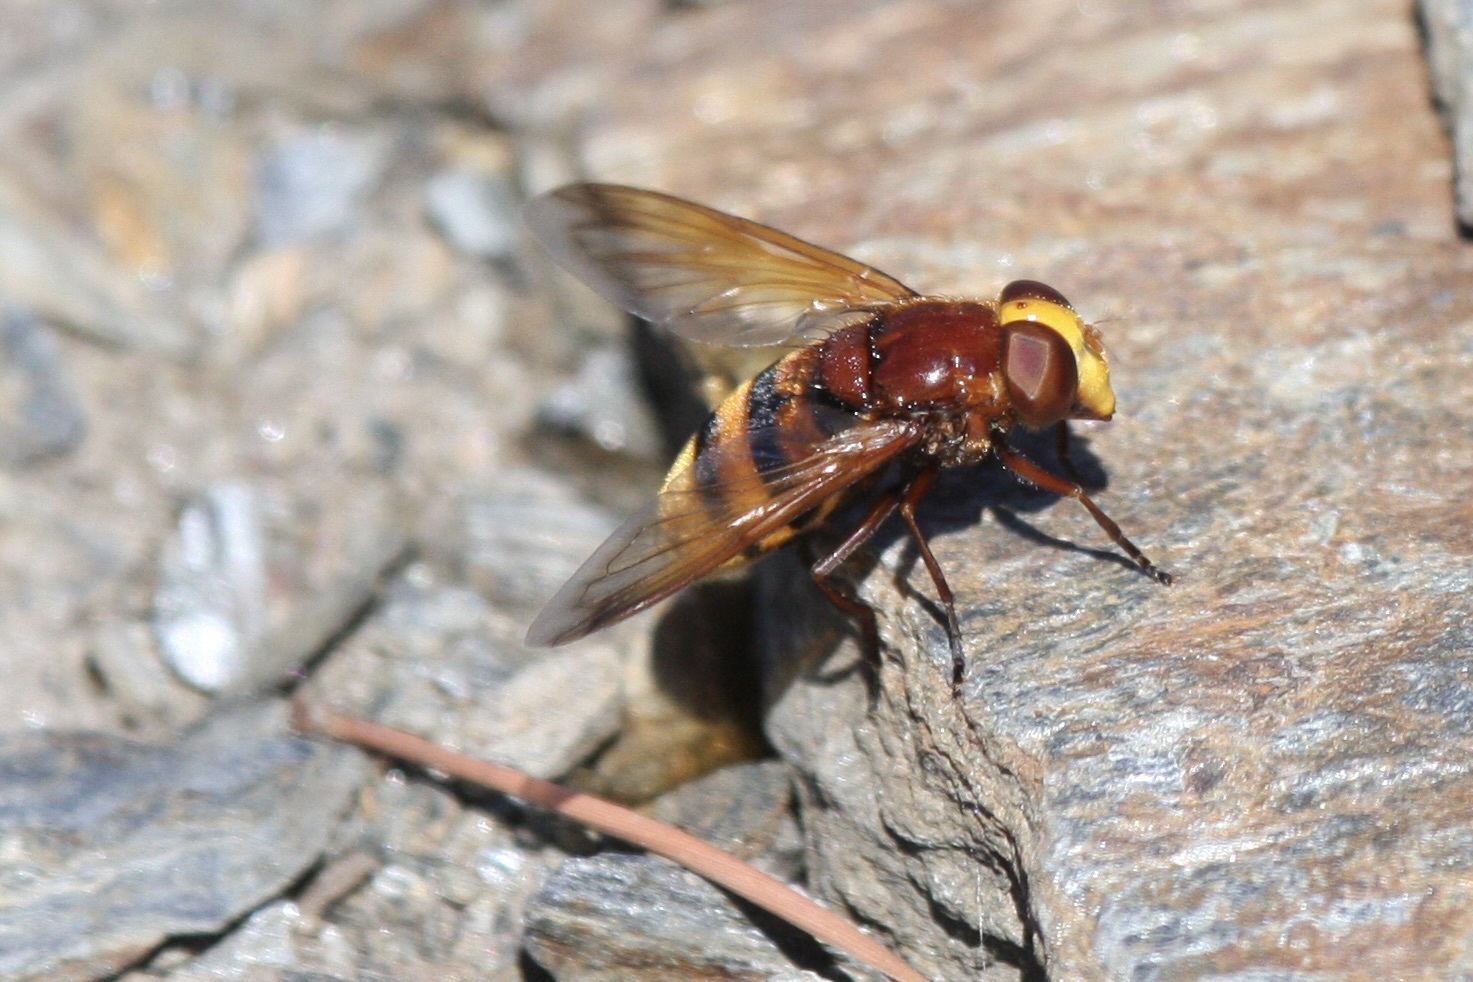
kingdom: Animalia
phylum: Arthropoda
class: Insecta
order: Diptera
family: Syrphidae
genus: Volucella
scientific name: Volucella zonaria
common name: Hornet hoverfly
